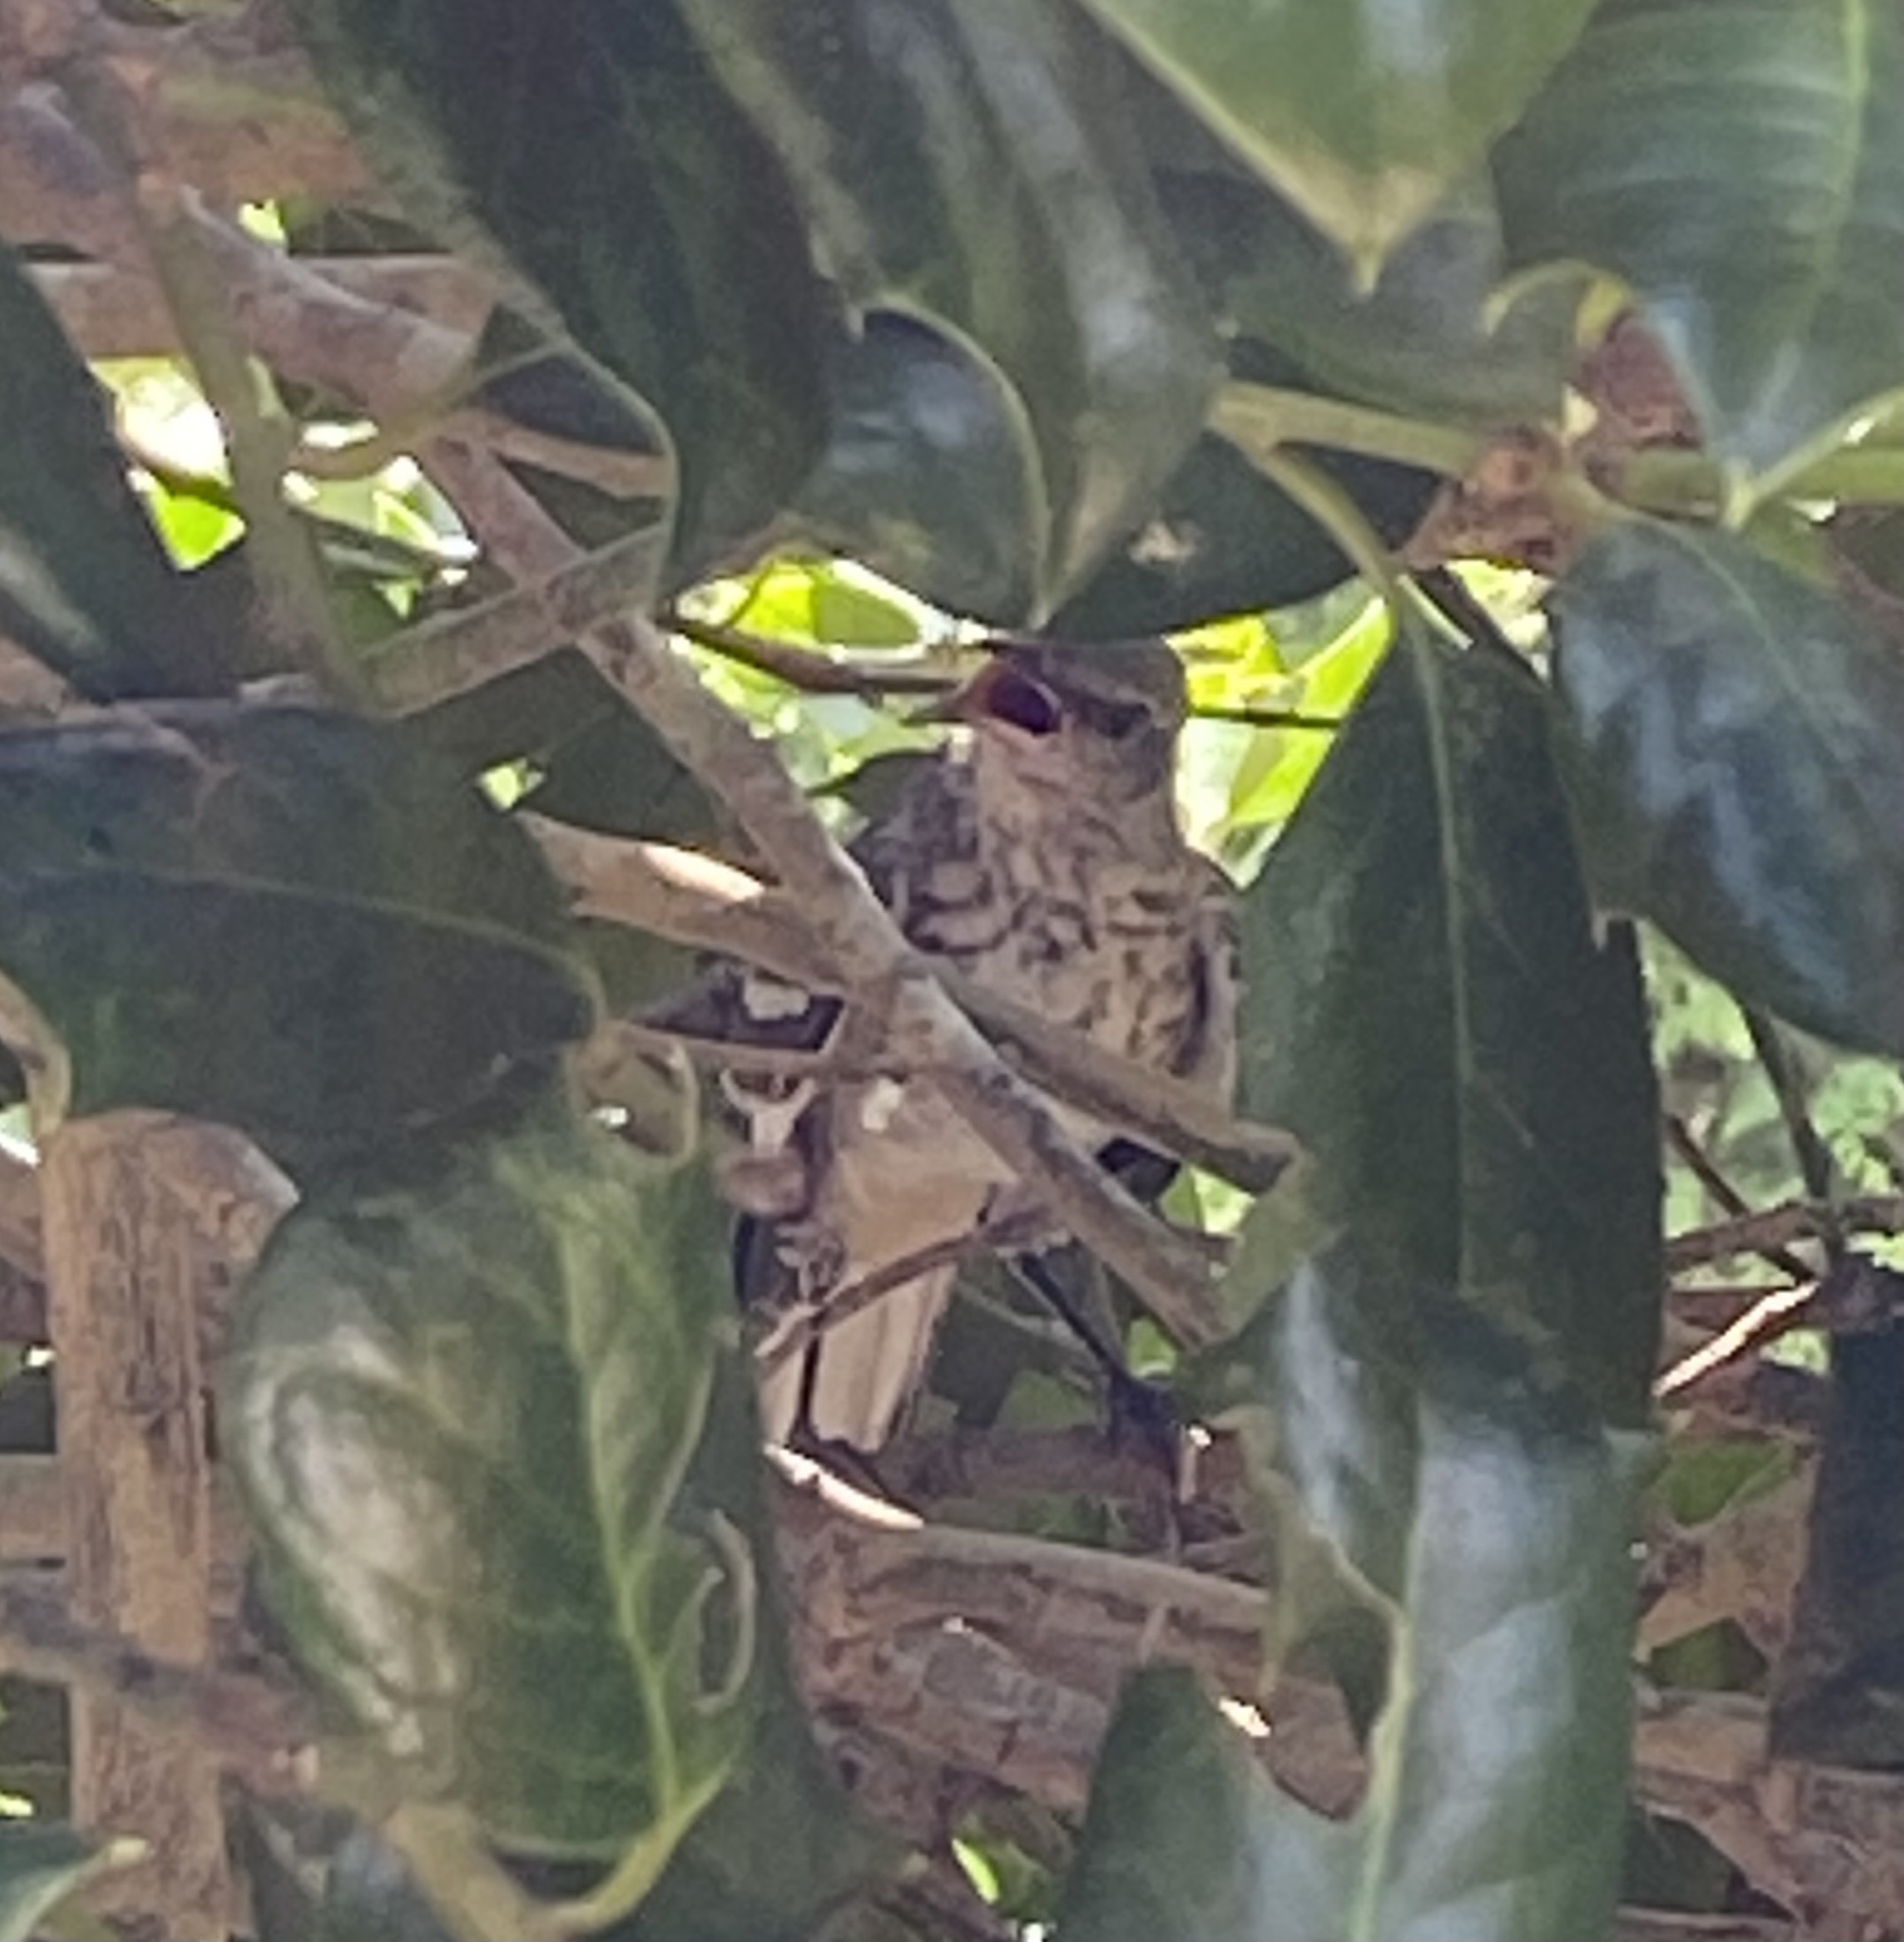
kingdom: Animalia
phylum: Chordata
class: Aves
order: Passeriformes
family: Mimidae
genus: Mimus
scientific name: Mimus polyglottos
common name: Northern mockingbird
